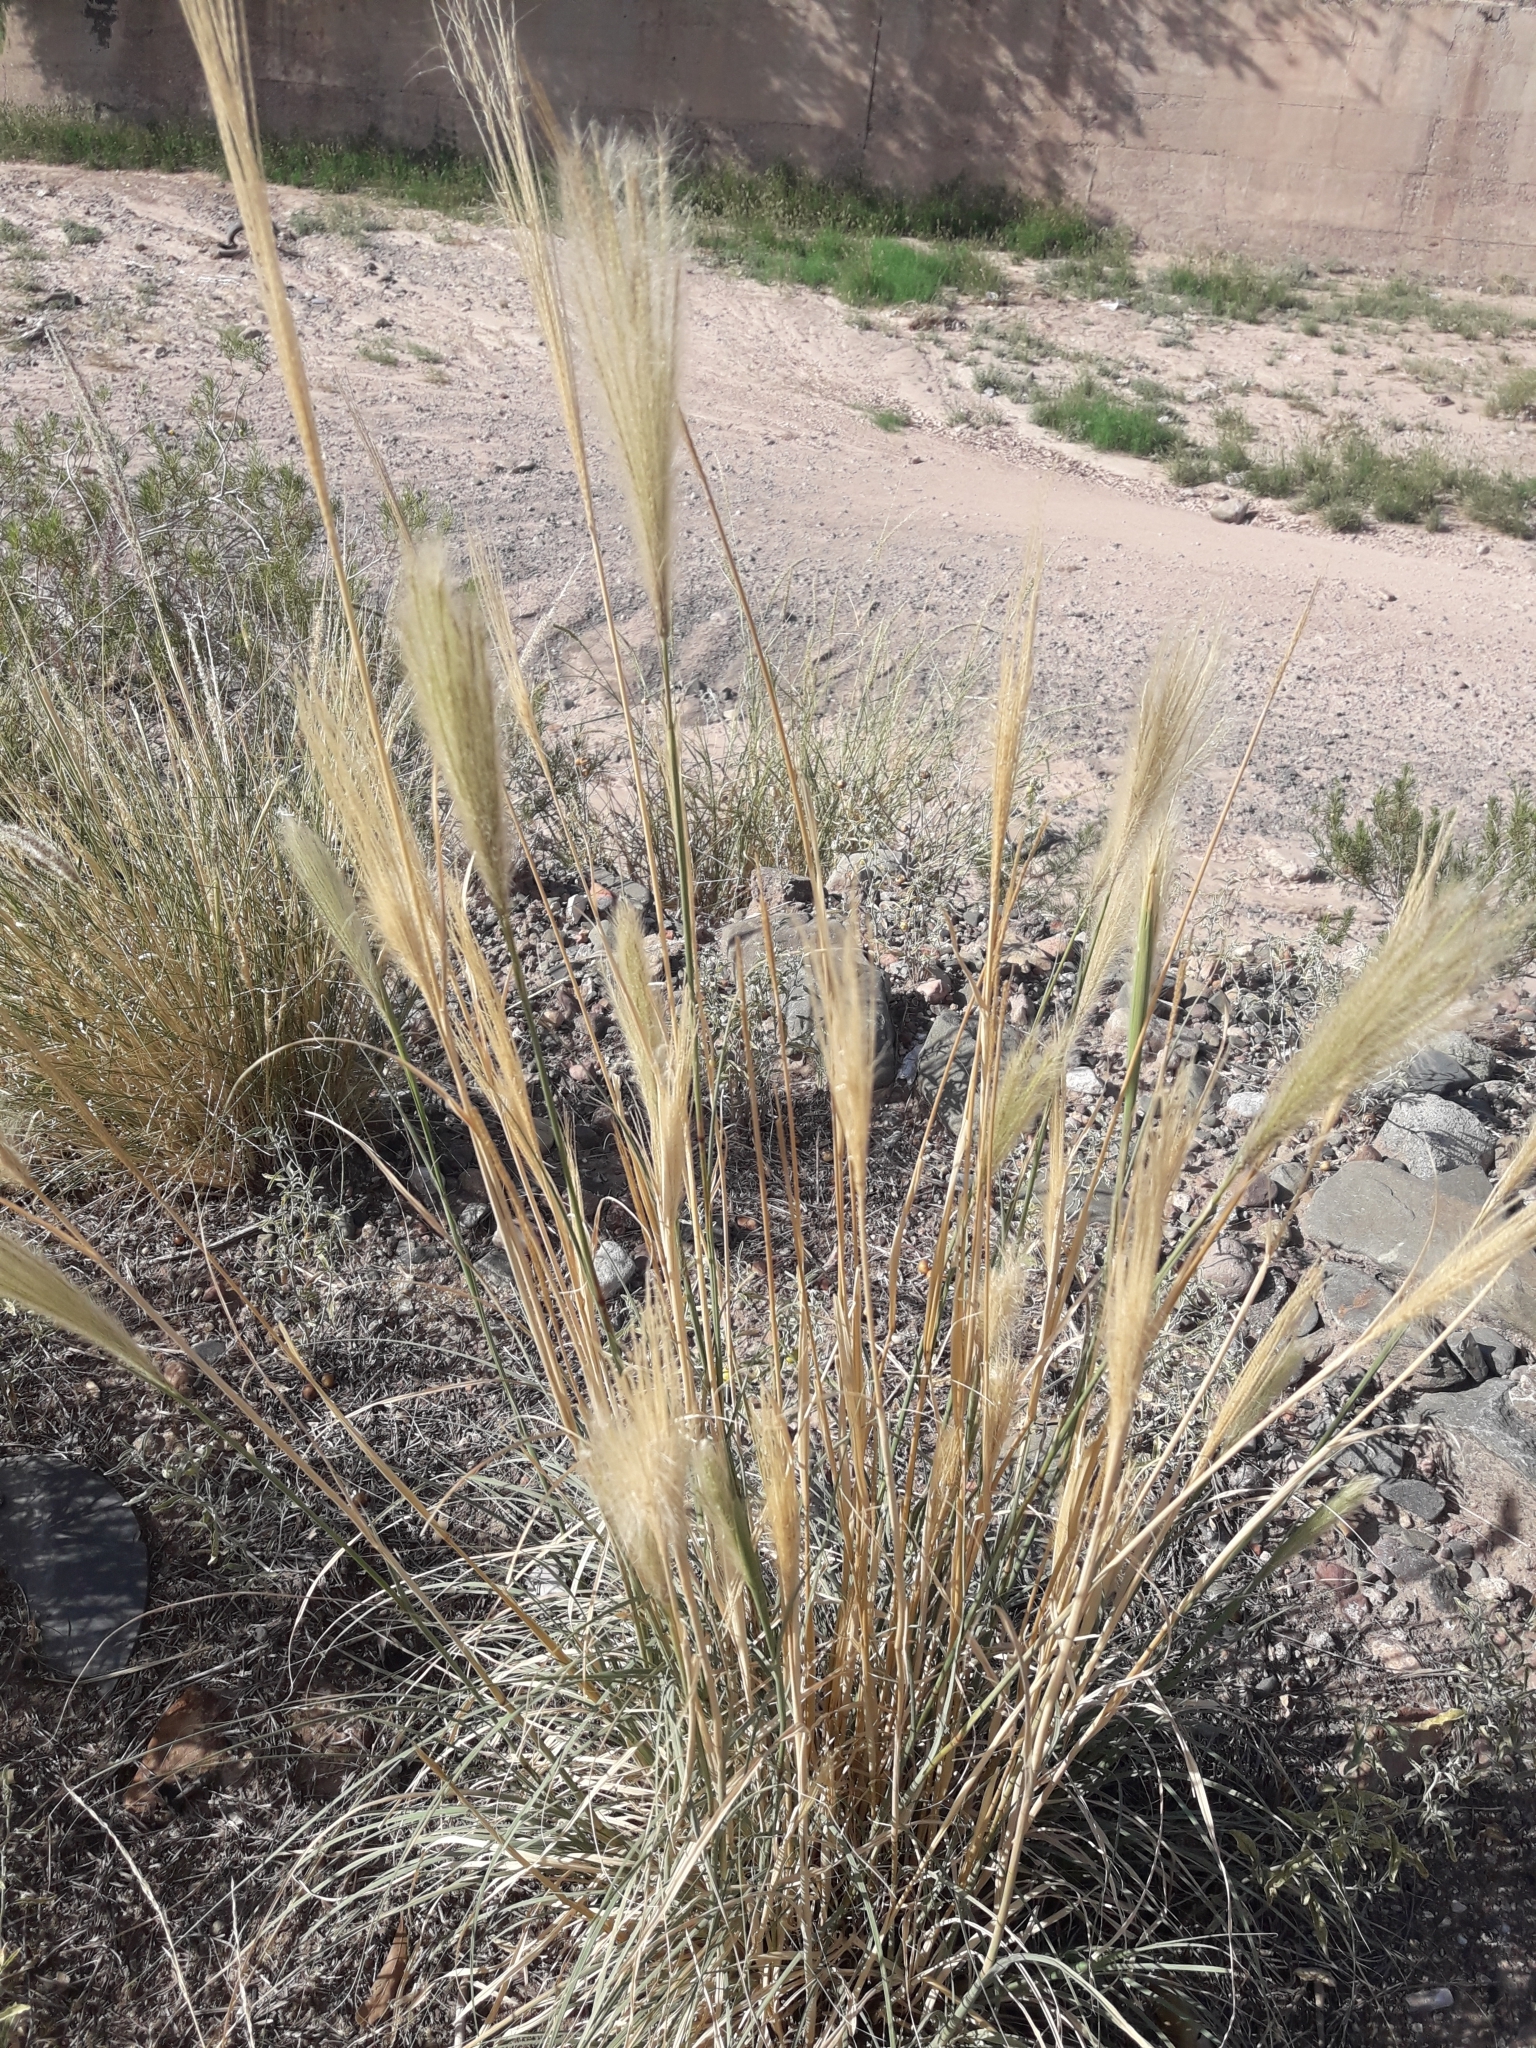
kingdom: Plantae
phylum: Tracheophyta
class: Liliopsida
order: Poales
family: Poaceae
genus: Leptochloa
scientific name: Leptochloa crinita
